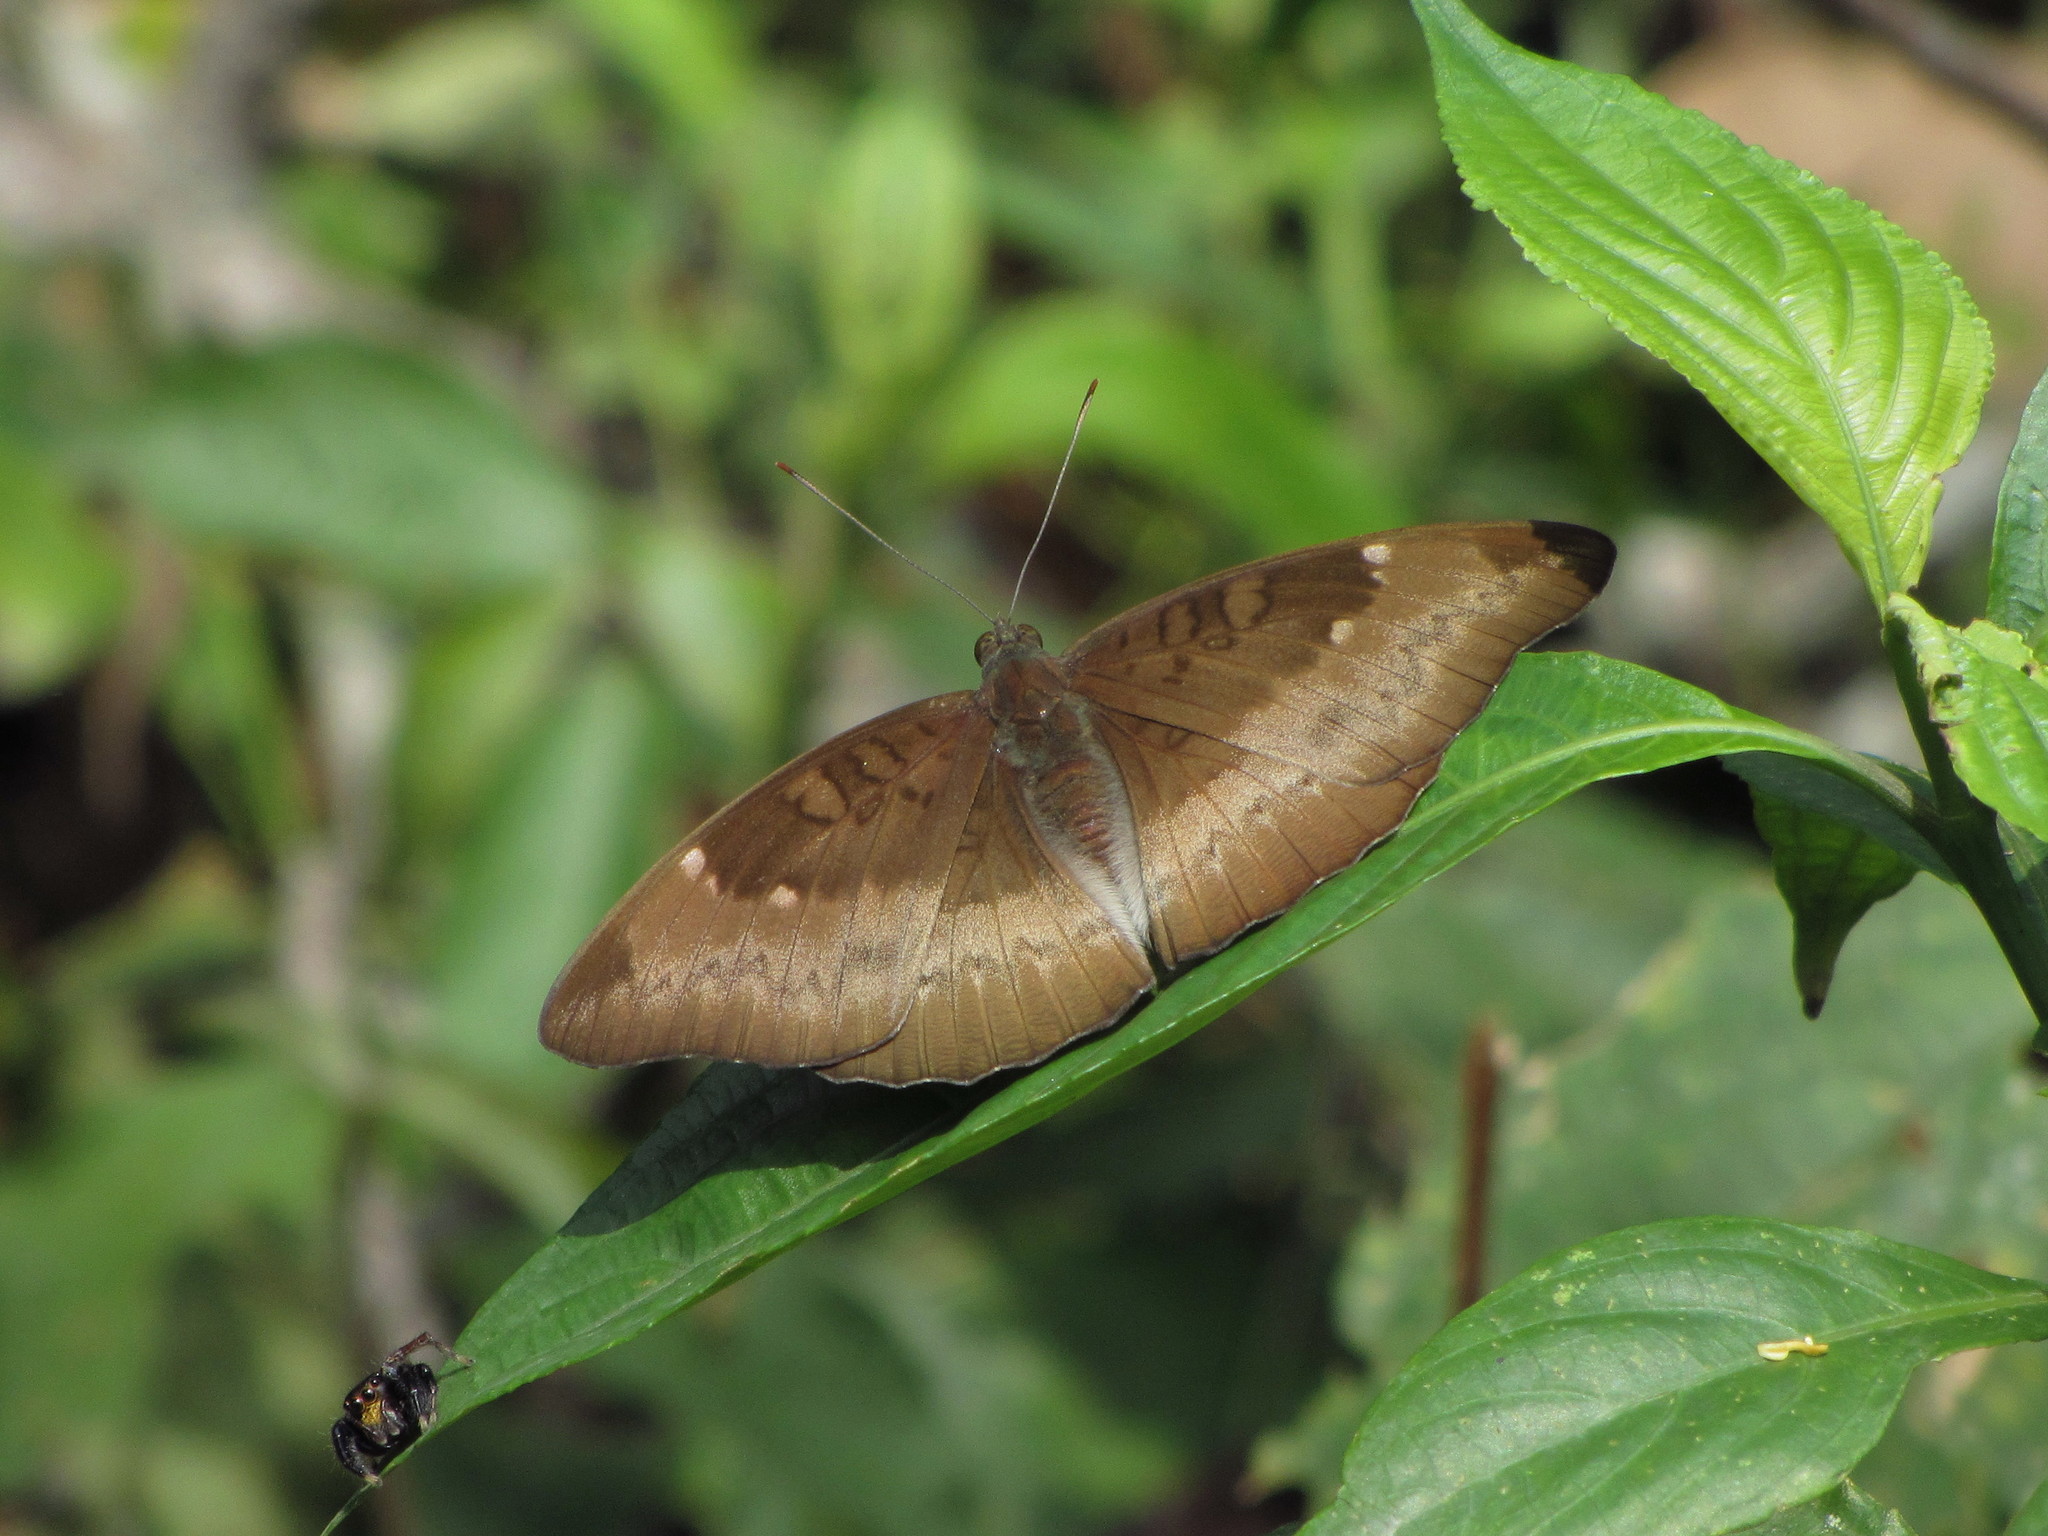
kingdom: Animalia
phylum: Arthropoda
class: Insecta
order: Lepidoptera
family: Nymphalidae
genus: Euthalia
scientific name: Euthalia monina
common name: Powdered baron
